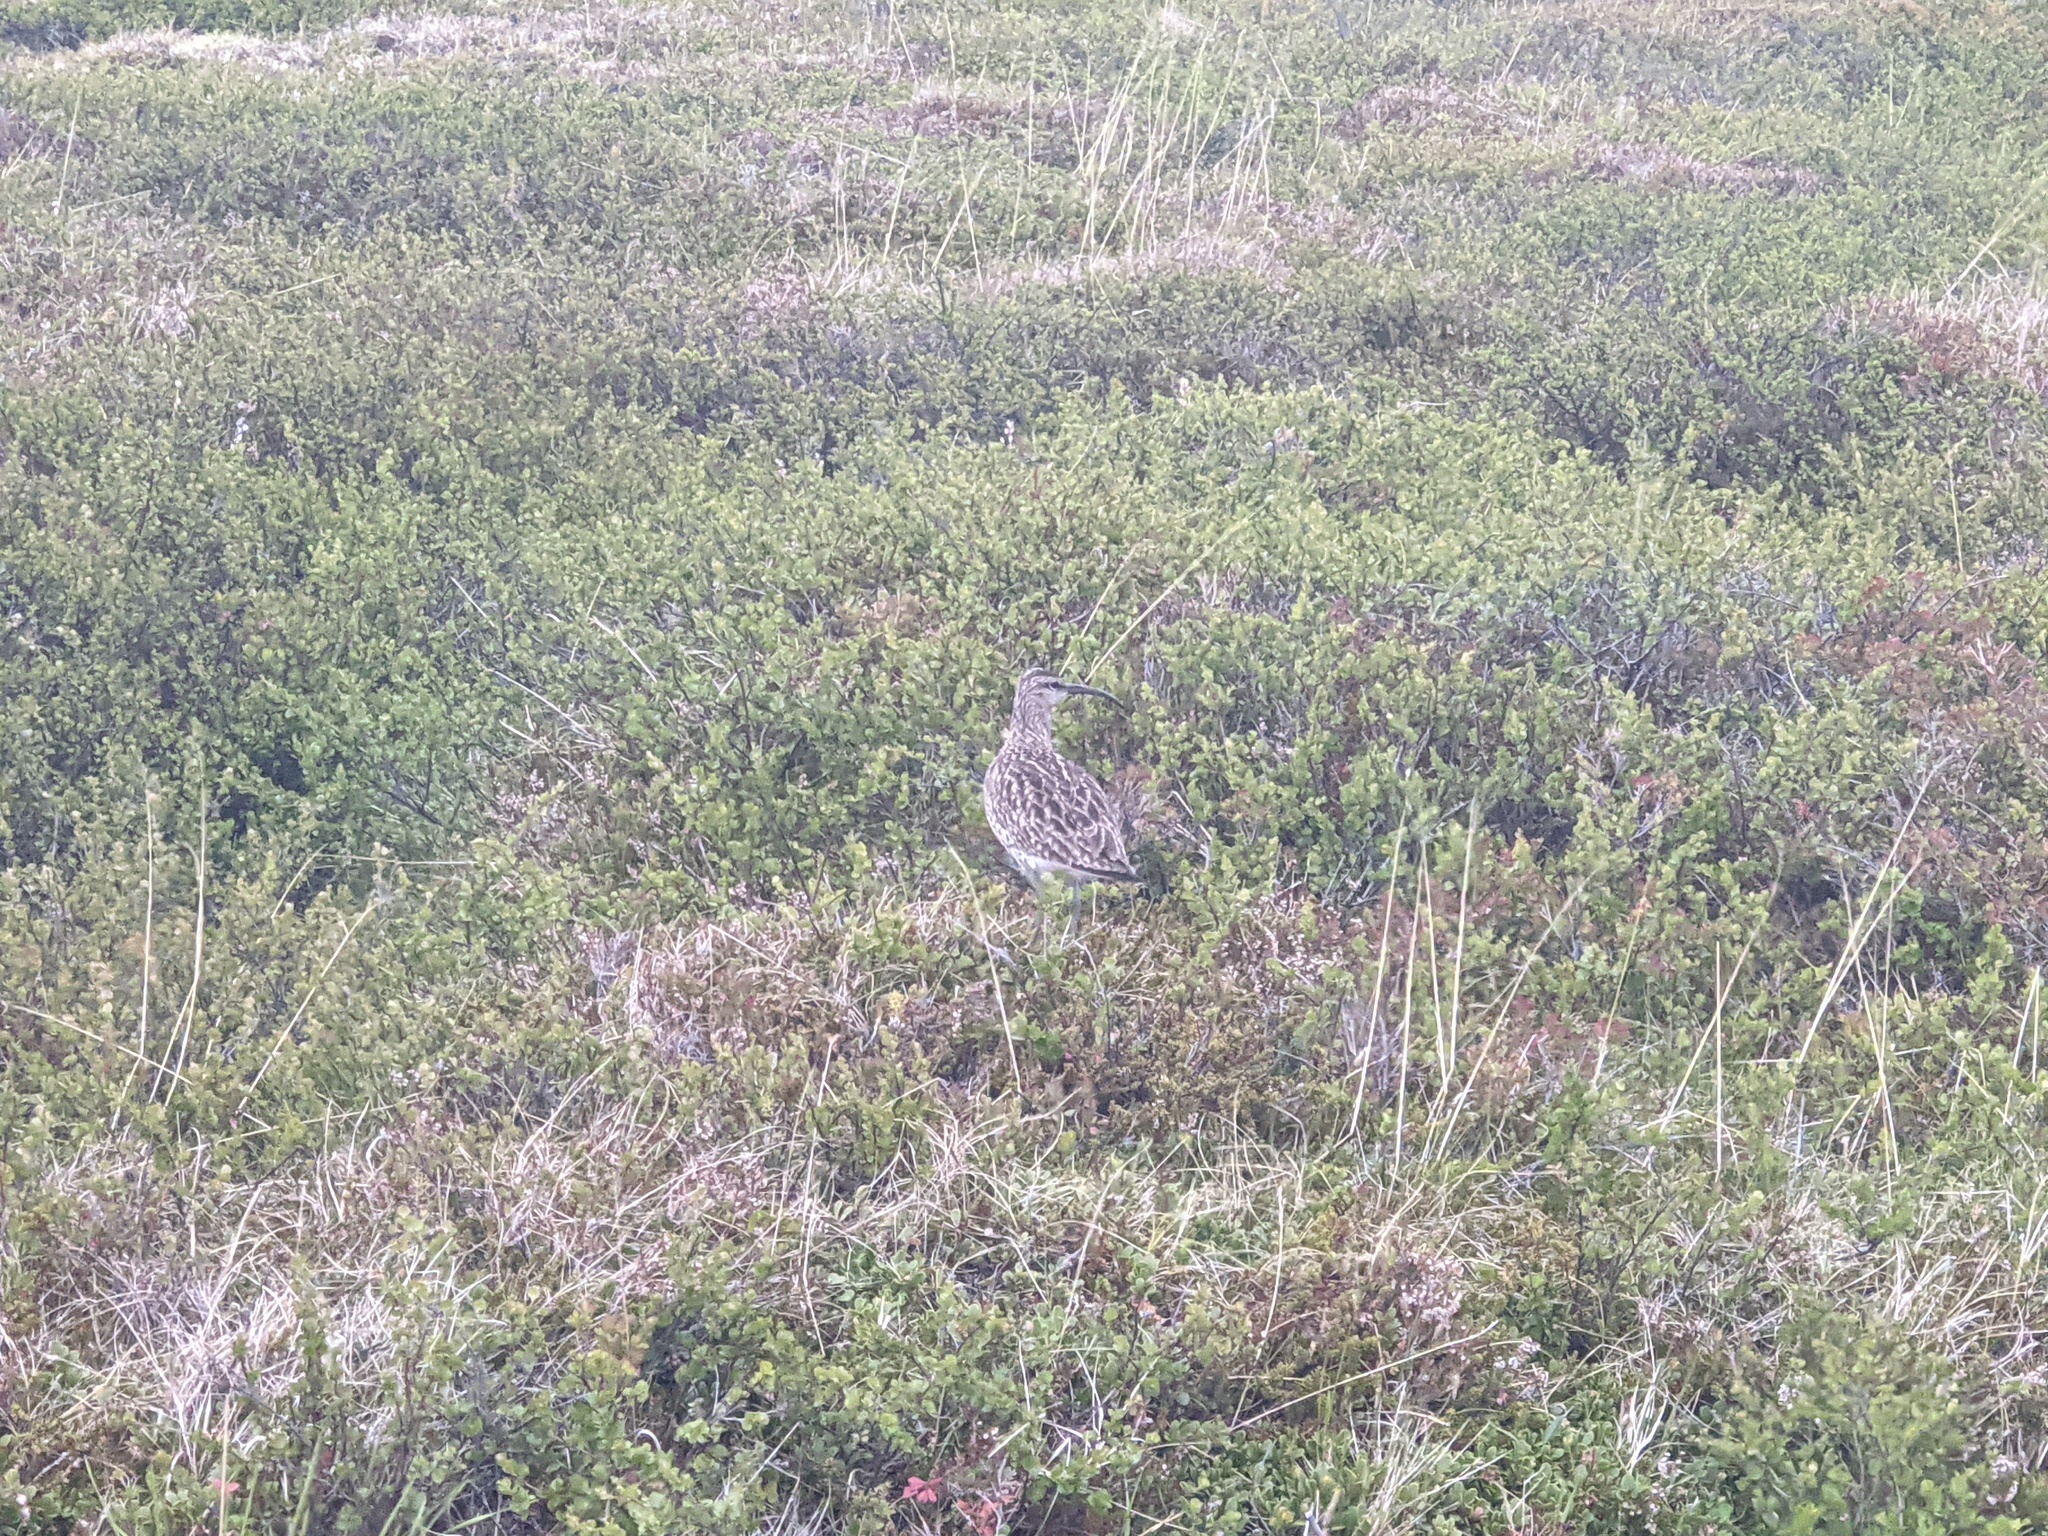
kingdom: Animalia
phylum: Chordata
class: Aves
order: Charadriiformes
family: Scolopacidae
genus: Numenius
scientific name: Numenius phaeopus
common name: Whimbrel
